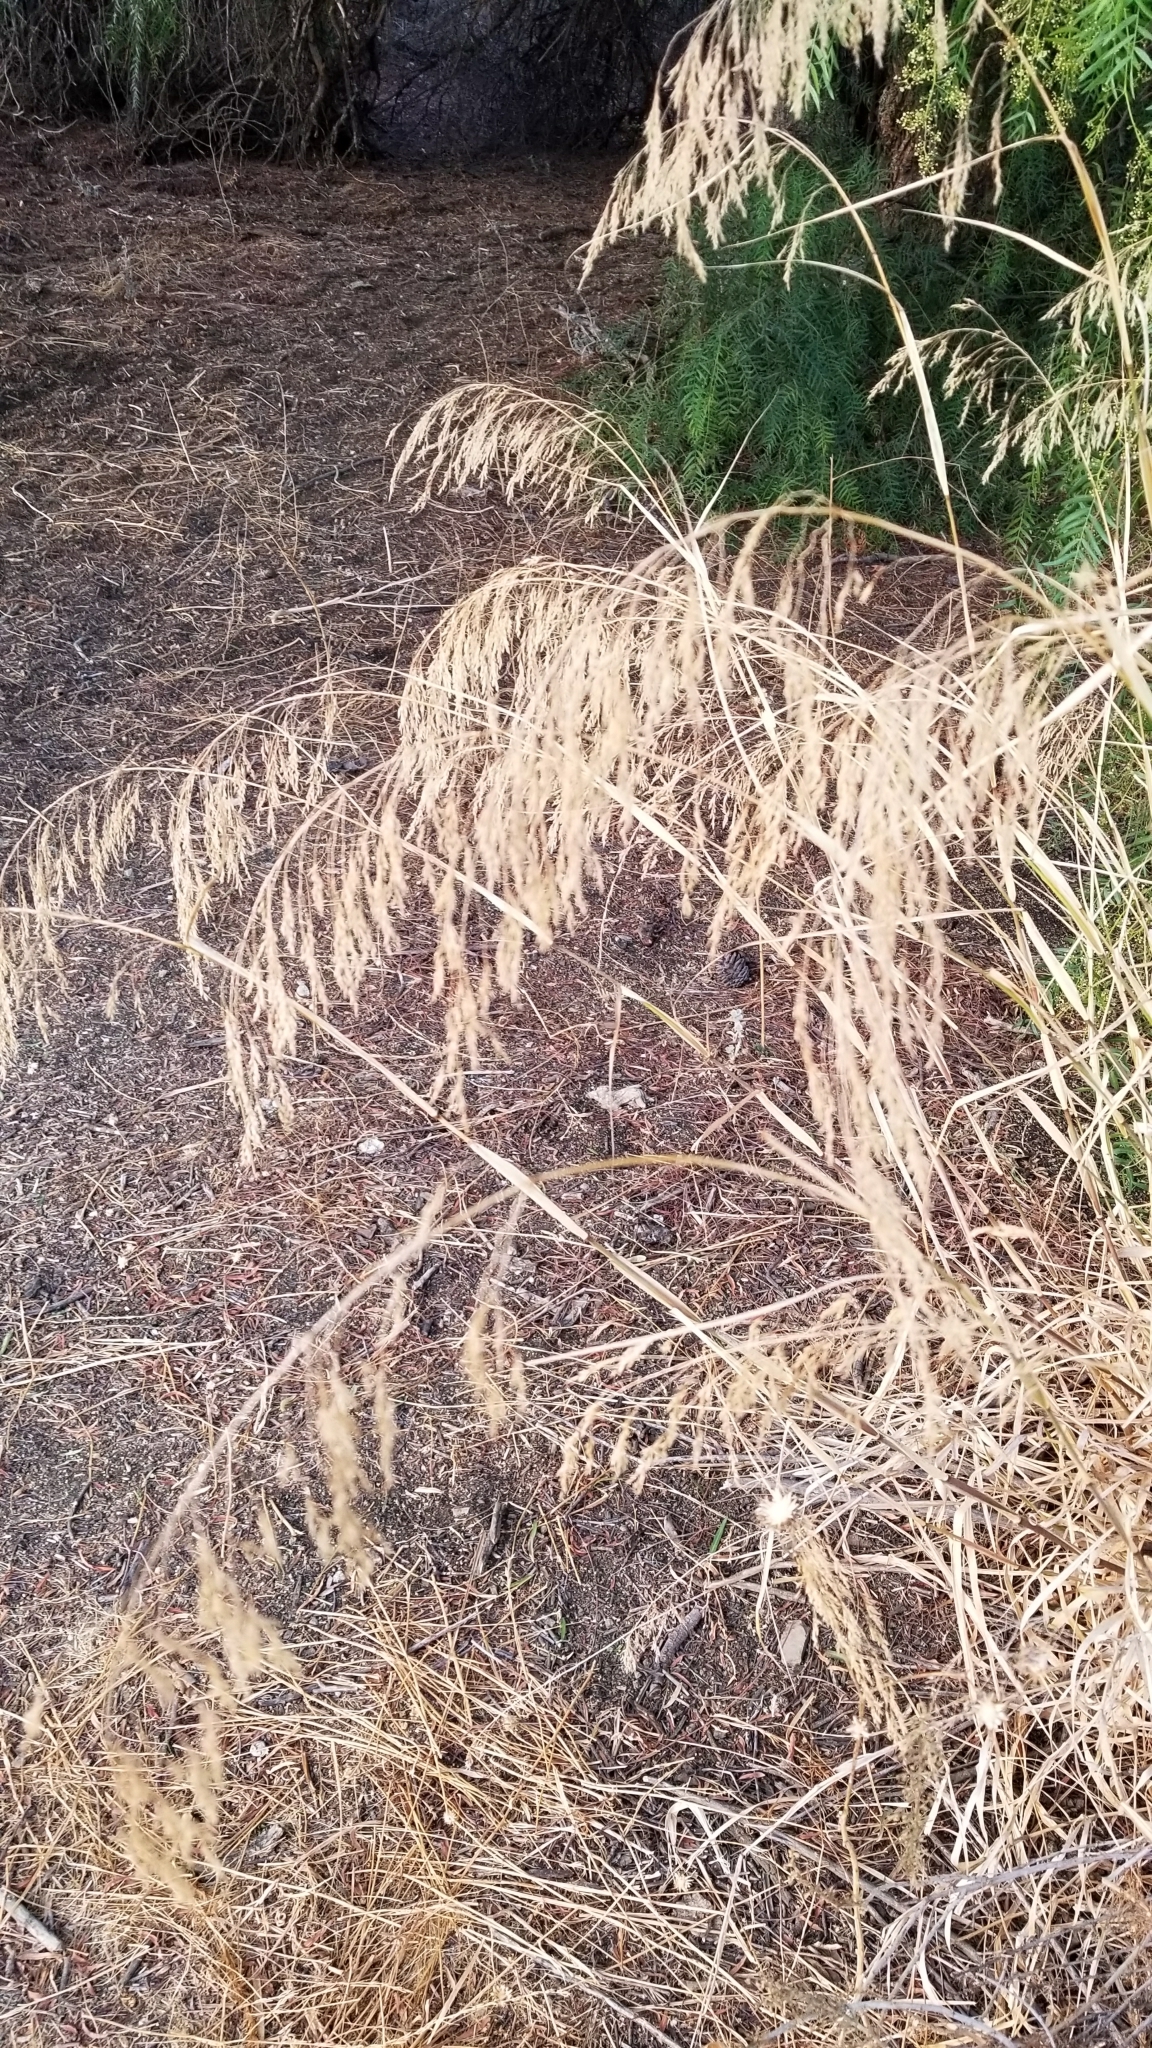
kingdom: Plantae
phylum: Tracheophyta
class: Liliopsida
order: Poales
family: Poaceae
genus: Oloptum
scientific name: Oloptum miliaceum
